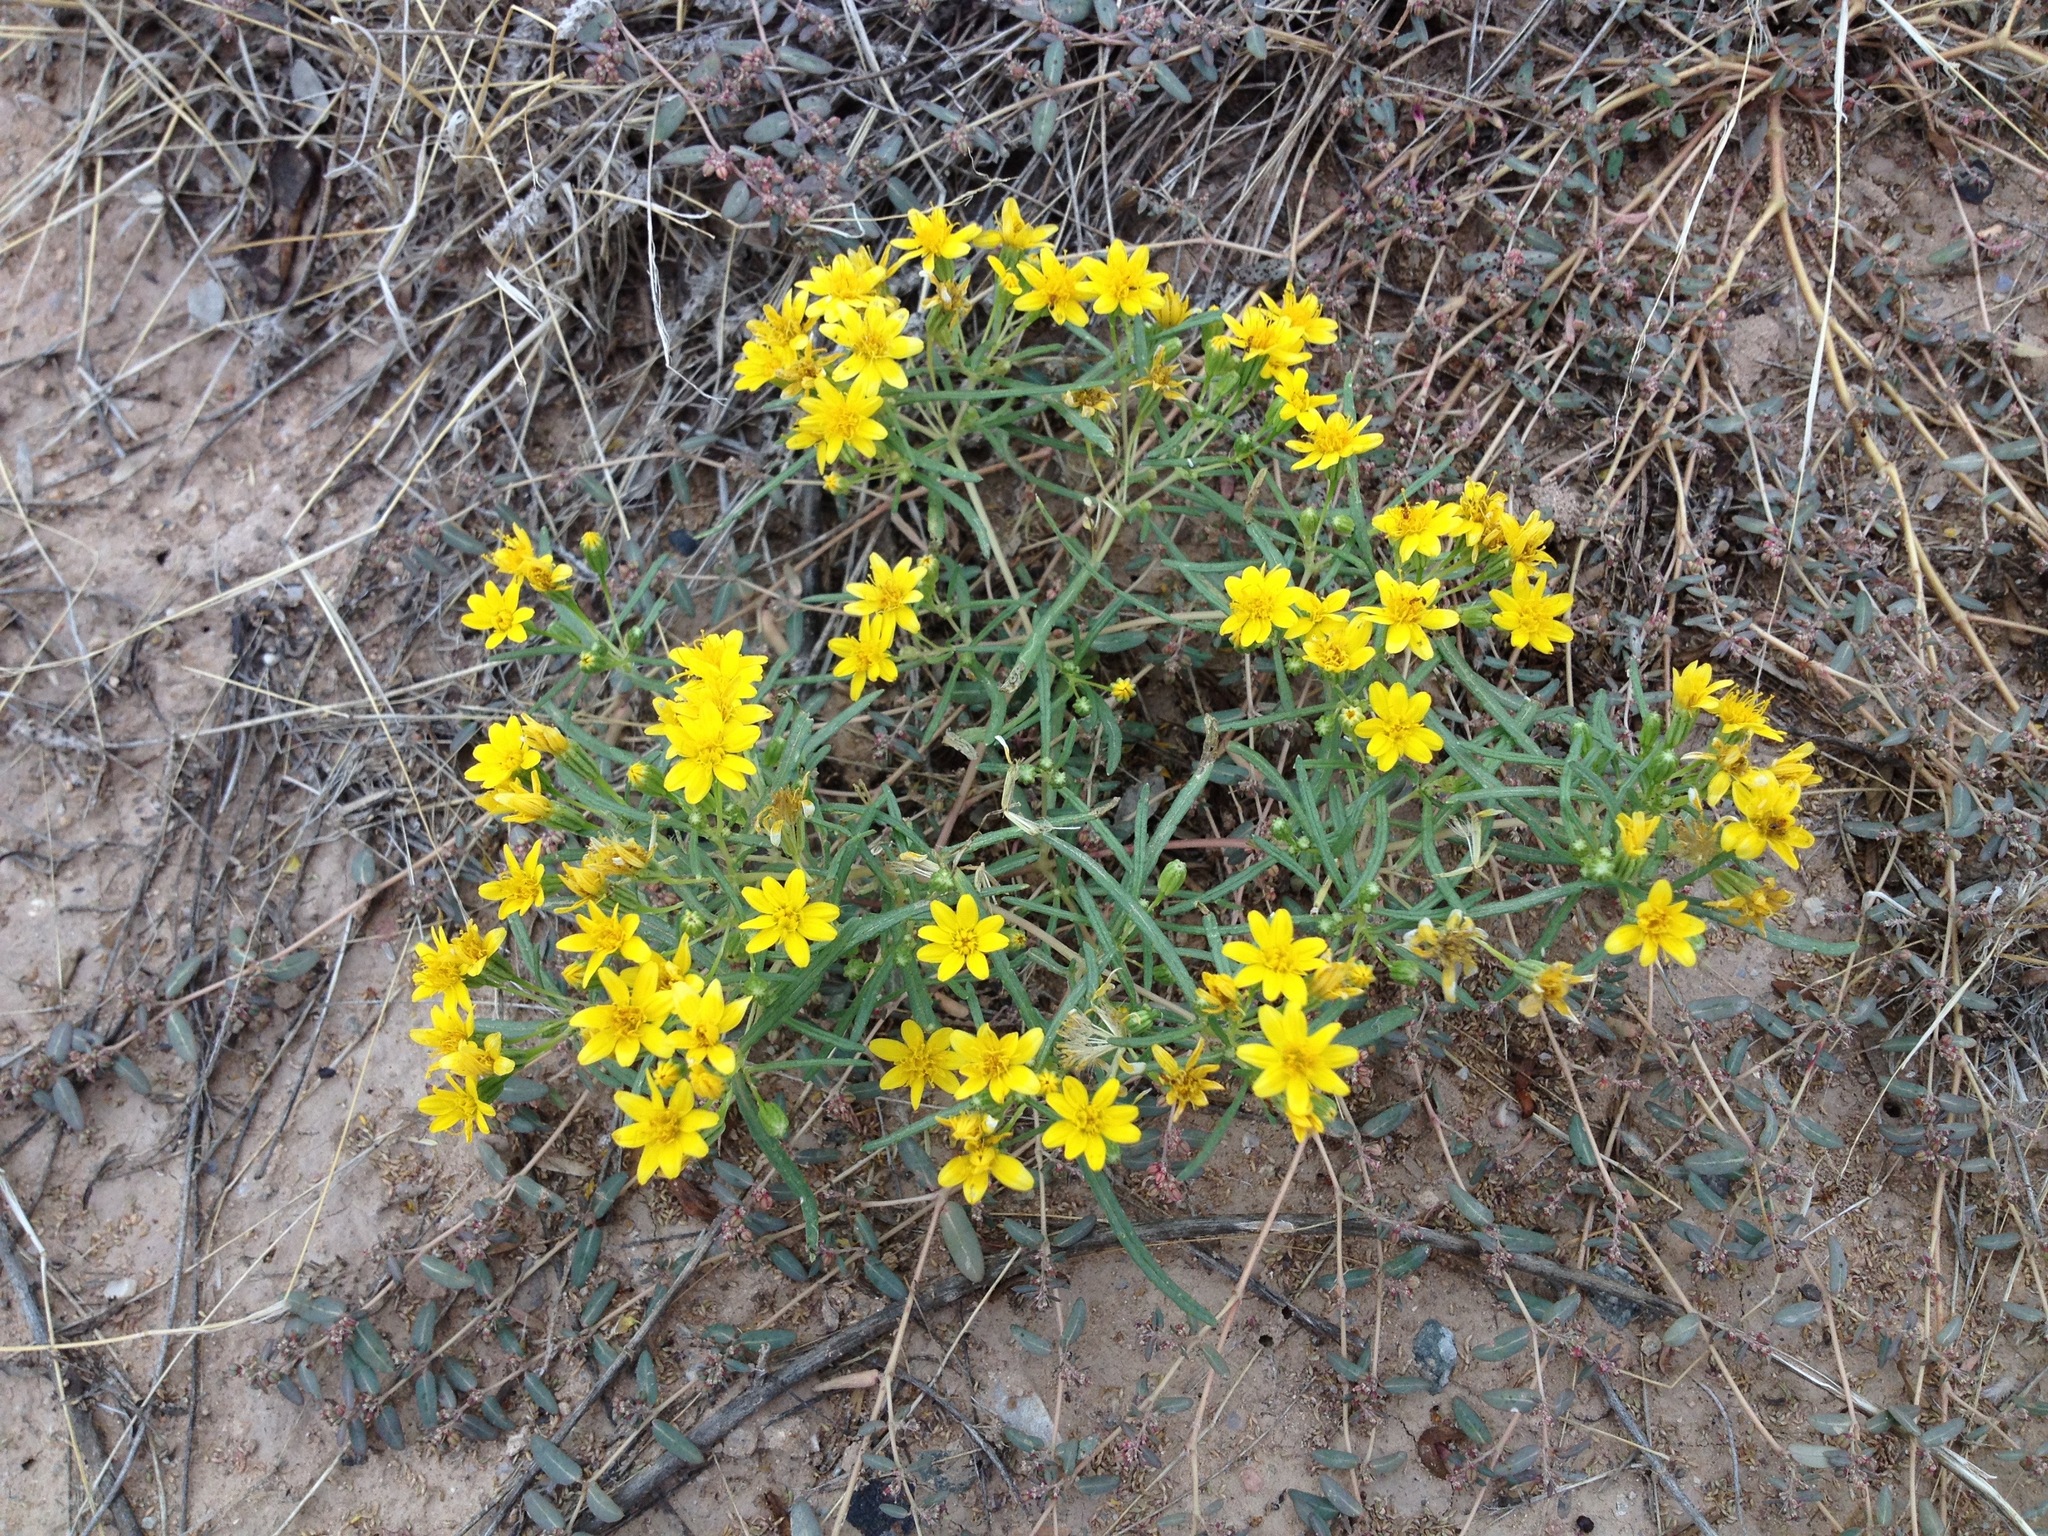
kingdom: Plantae
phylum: Tracheophyta
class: Magnoliopsida
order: Asterales
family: Asteraceae
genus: Pectis
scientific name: Pectis papposa
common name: Many-bristle chinchweed
